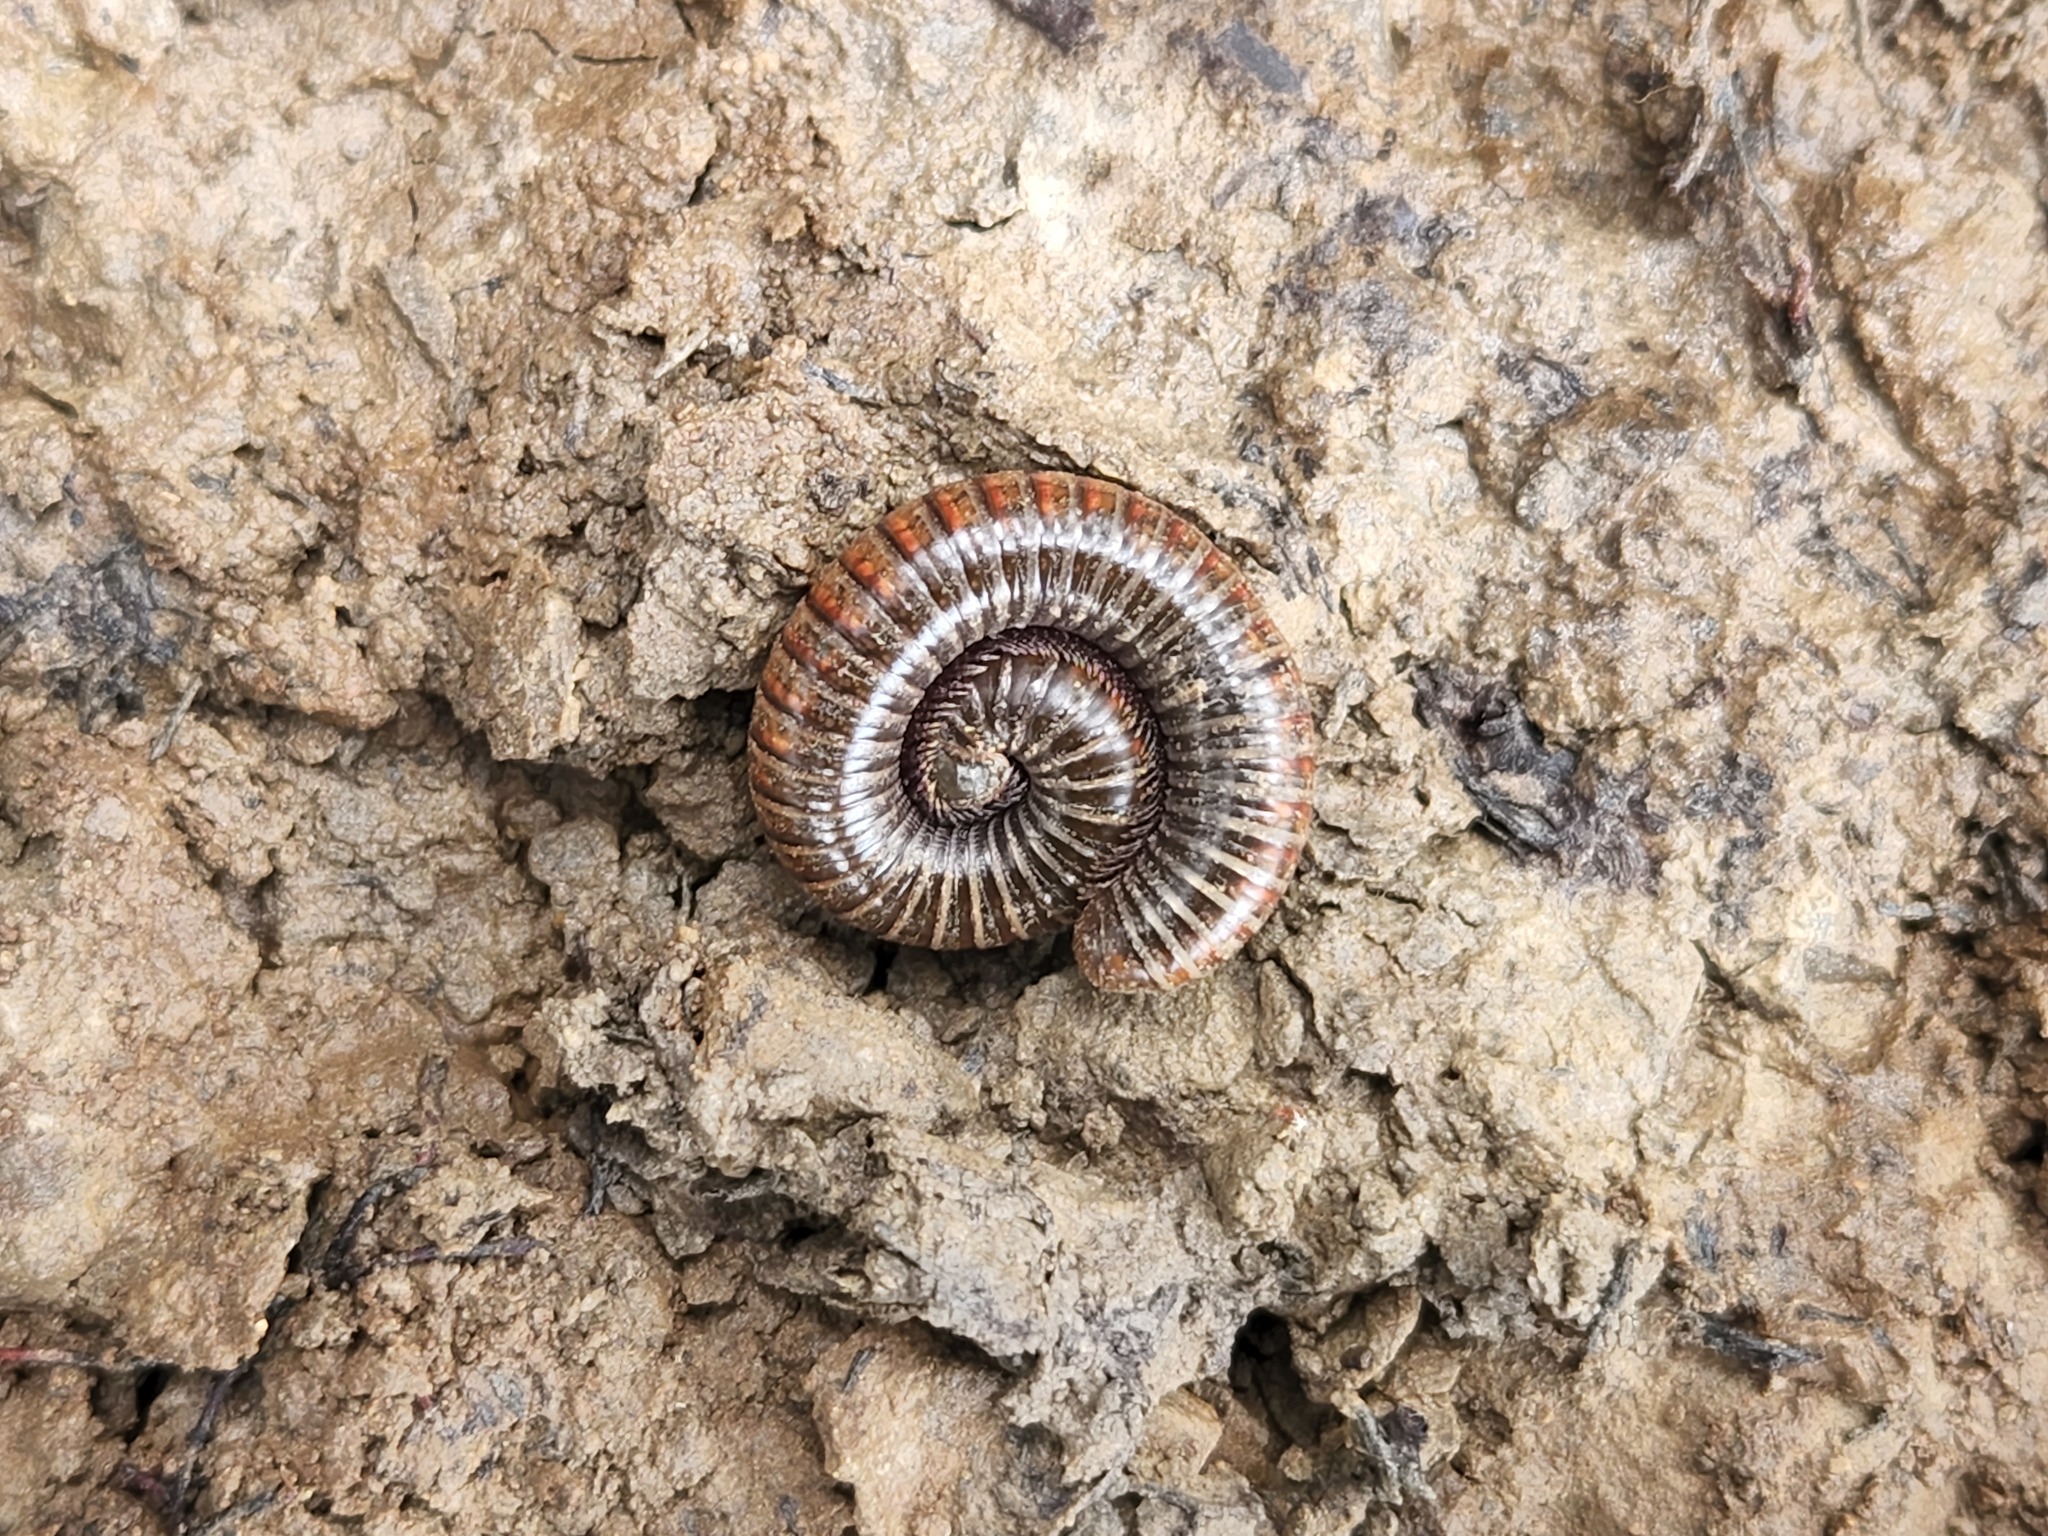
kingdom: Animalia
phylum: Arthropoda
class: Diplopoda
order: Spirostreptida
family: Choctellidae
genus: Choctella
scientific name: Choctella cumminsi
